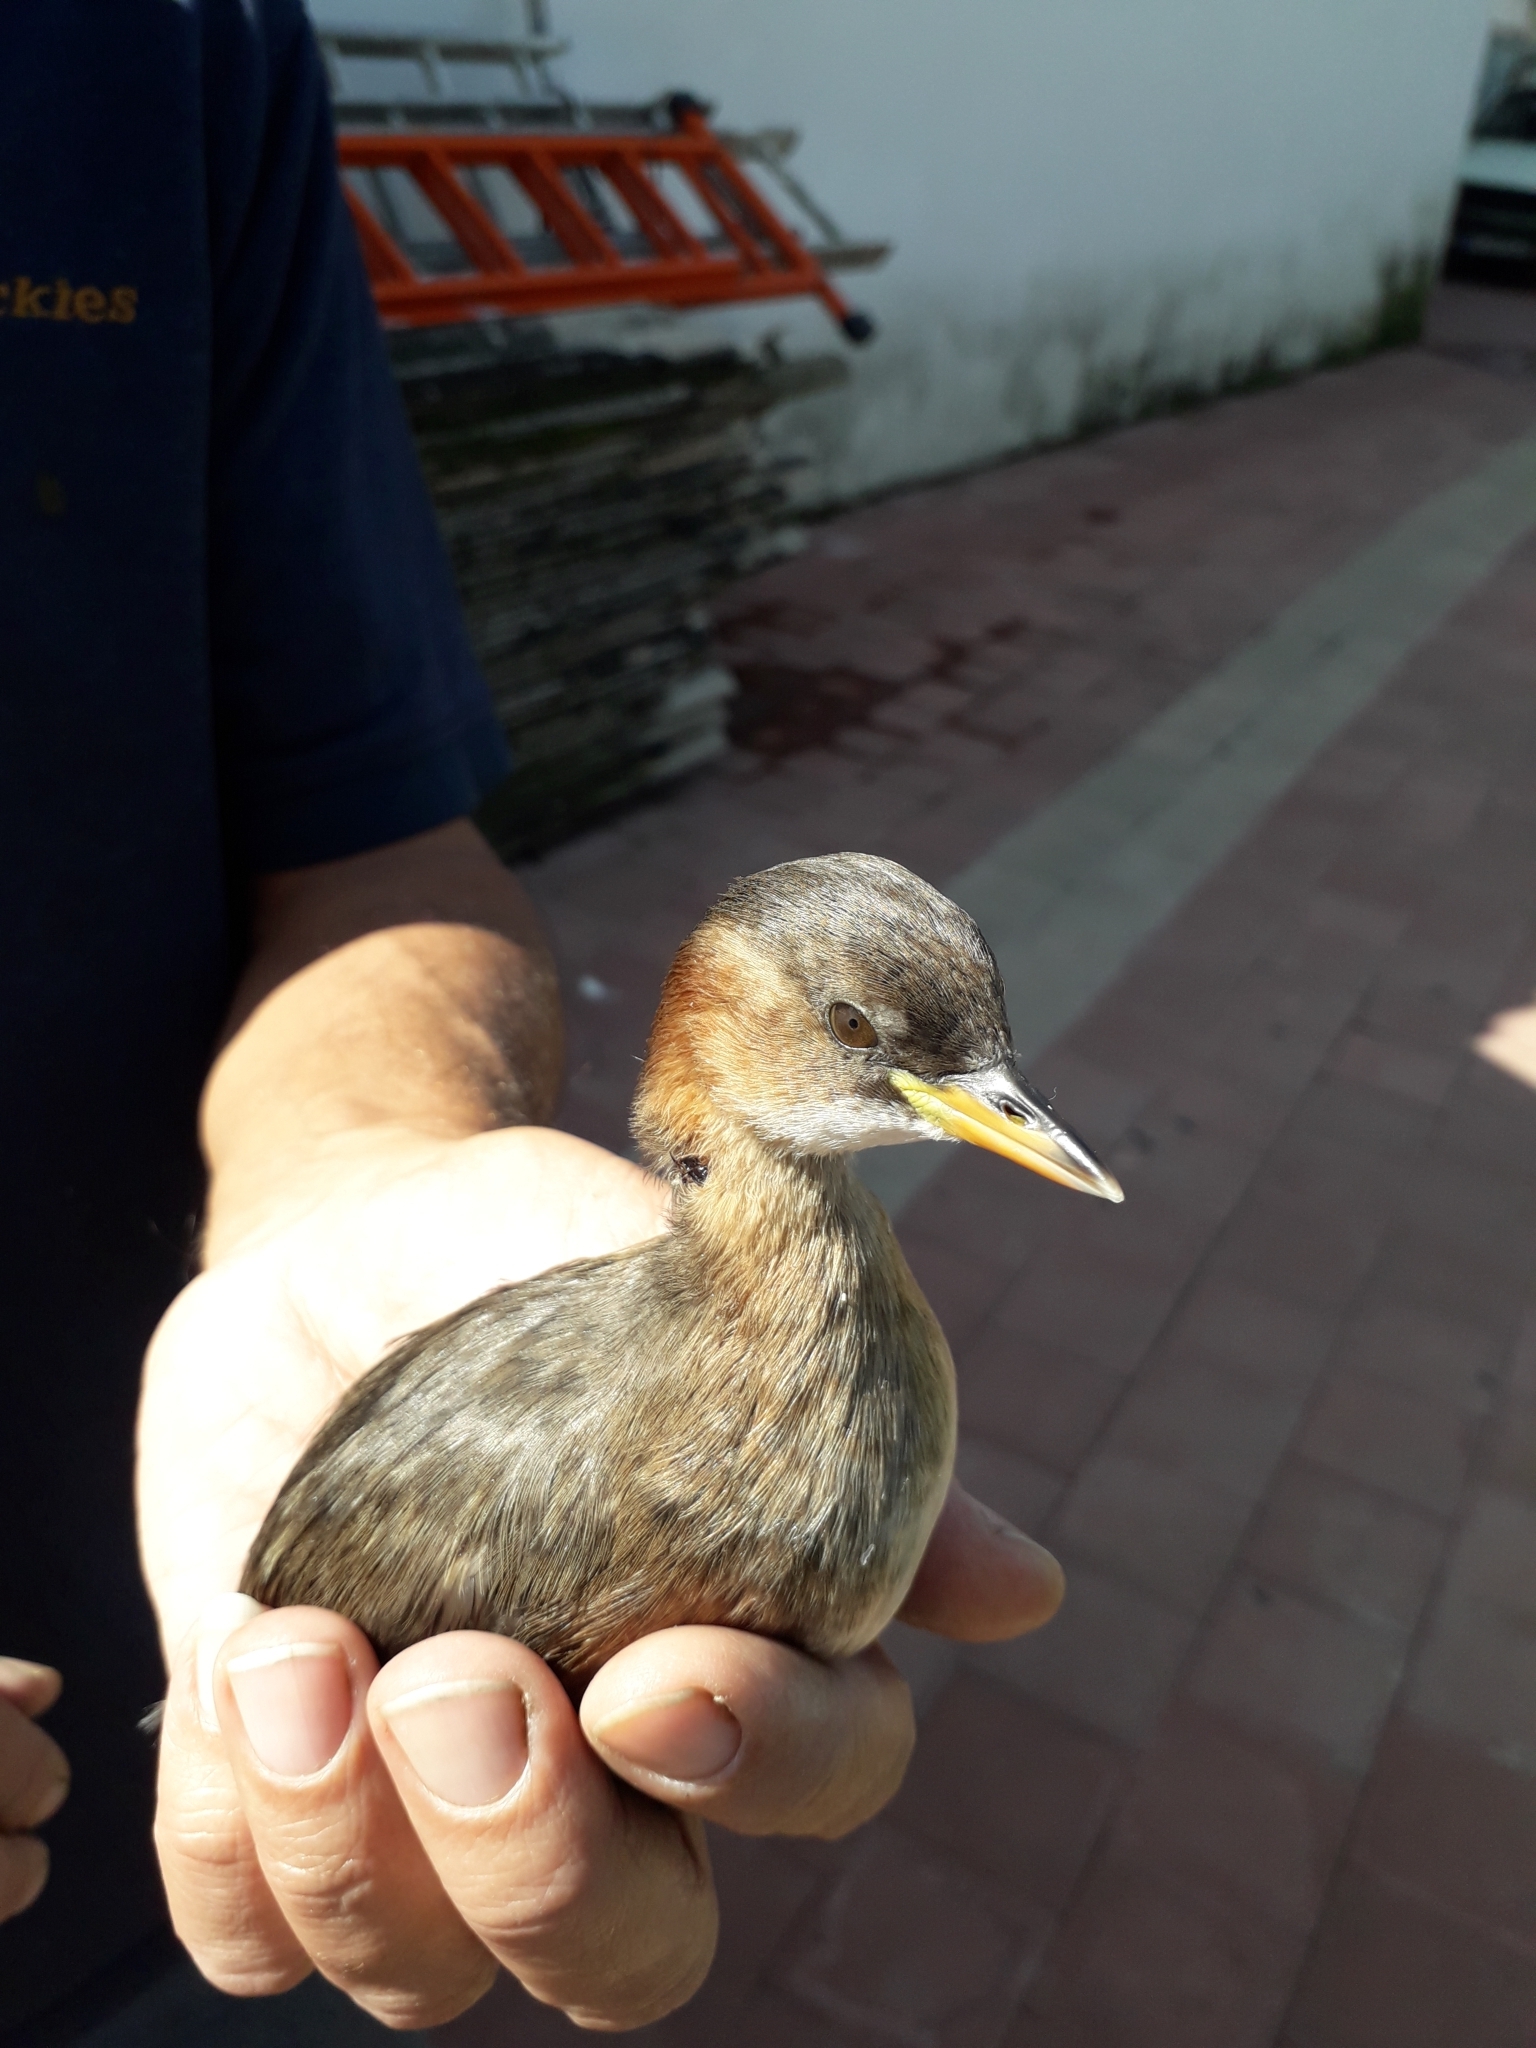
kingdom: Animalia
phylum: Chordata
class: Aves
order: Podicipediformes
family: Podicipedidae
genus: Tachybaptus
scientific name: Tachybaptus ruficollis
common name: Little grebe
